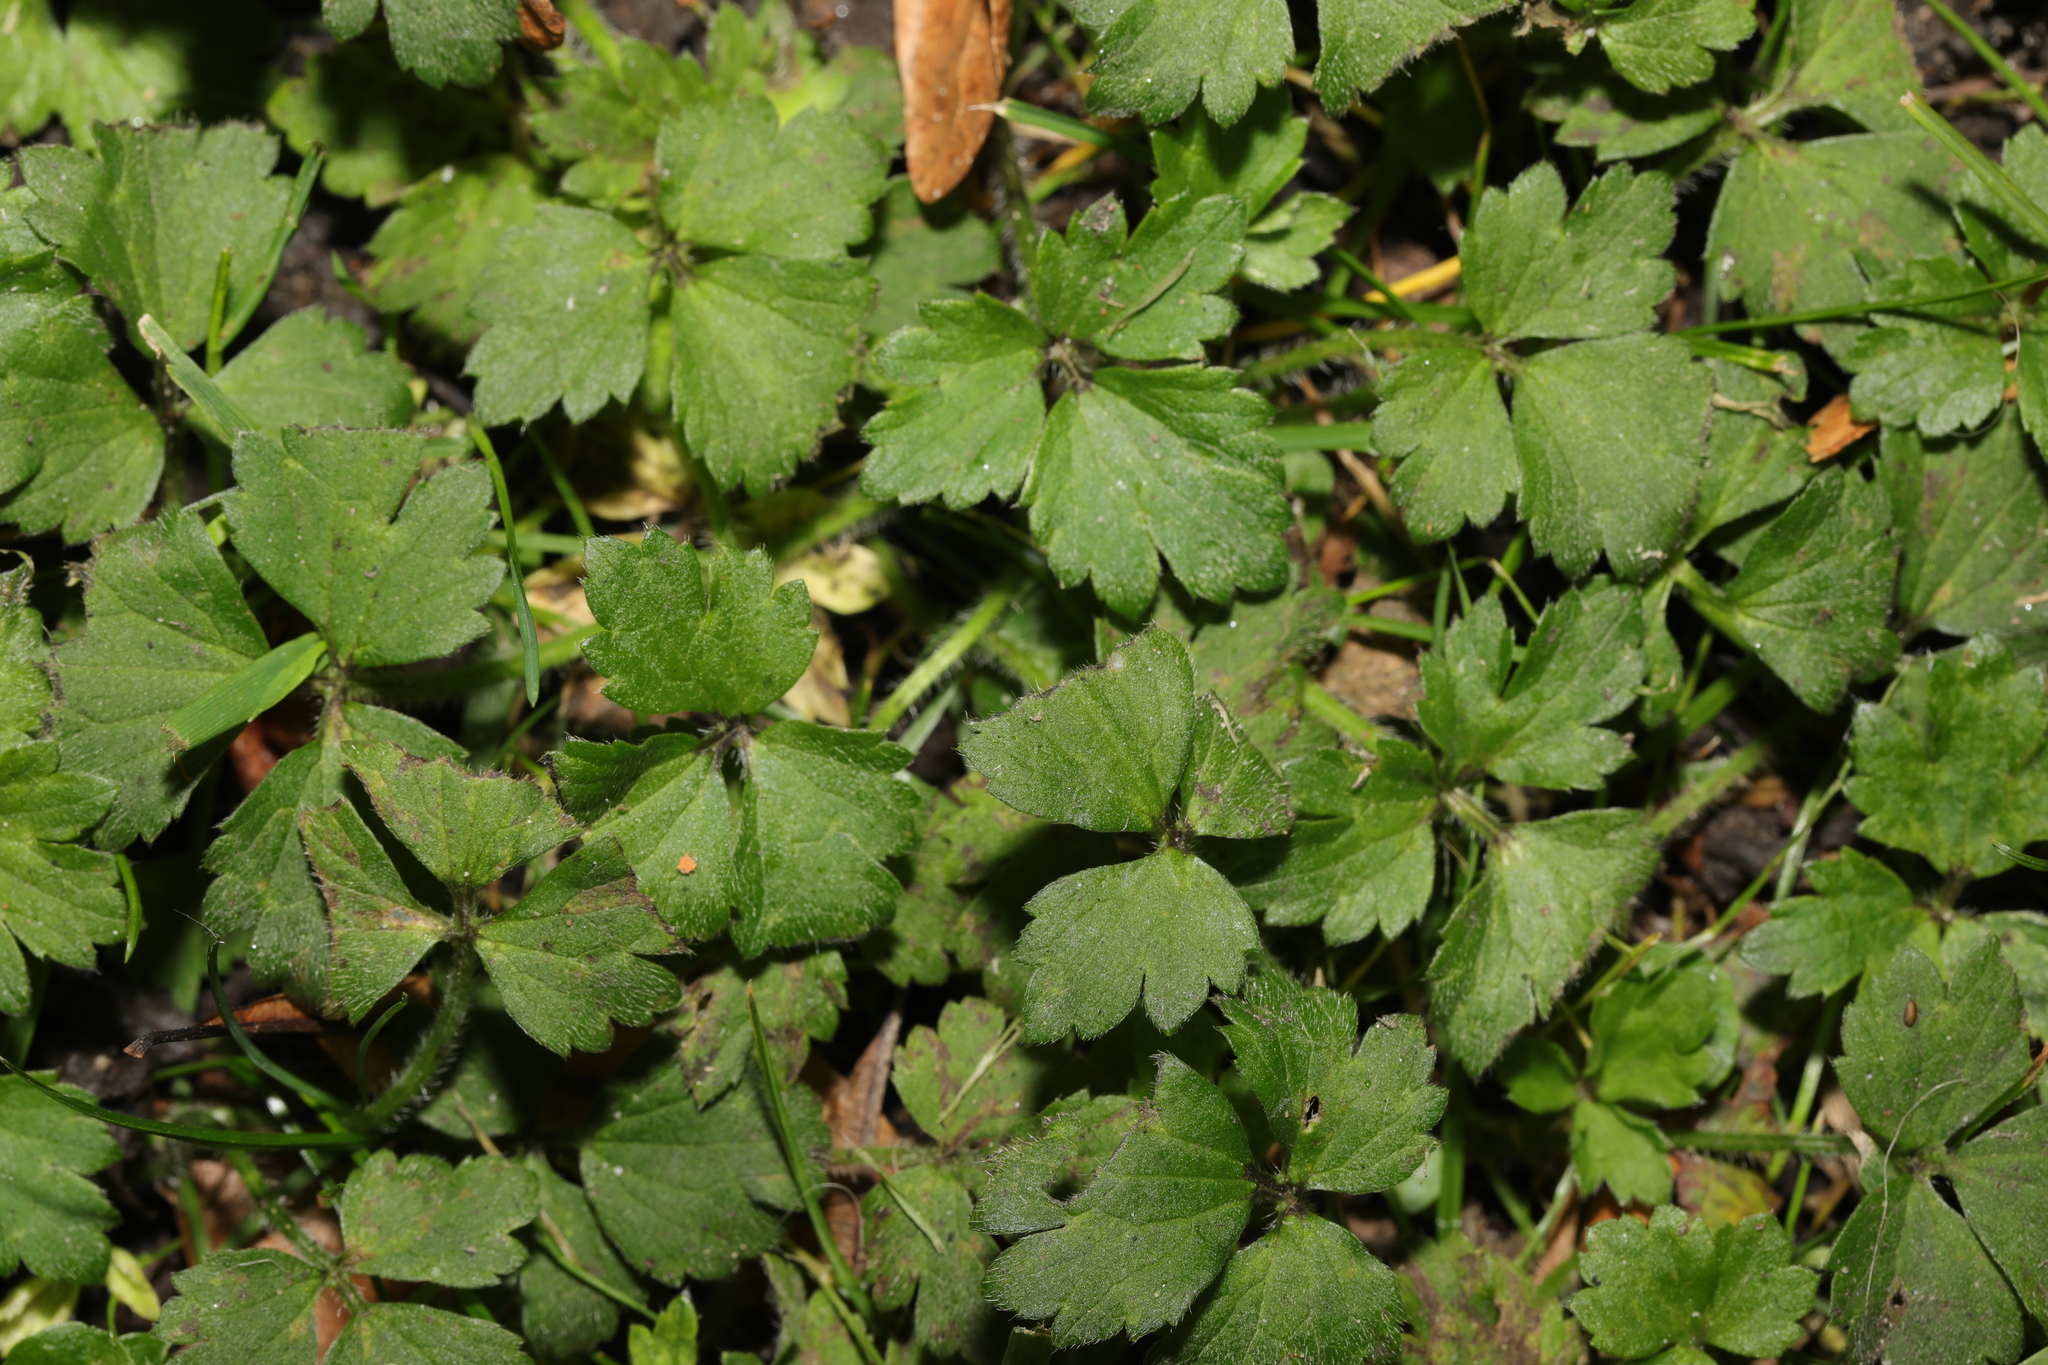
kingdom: Plantae
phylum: Tracheophyta
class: Magnoliopsida
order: Ranunculales
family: Ranunculaceae
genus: Ranunculus
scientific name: Ranunculus repens
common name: Creeping buttercup
